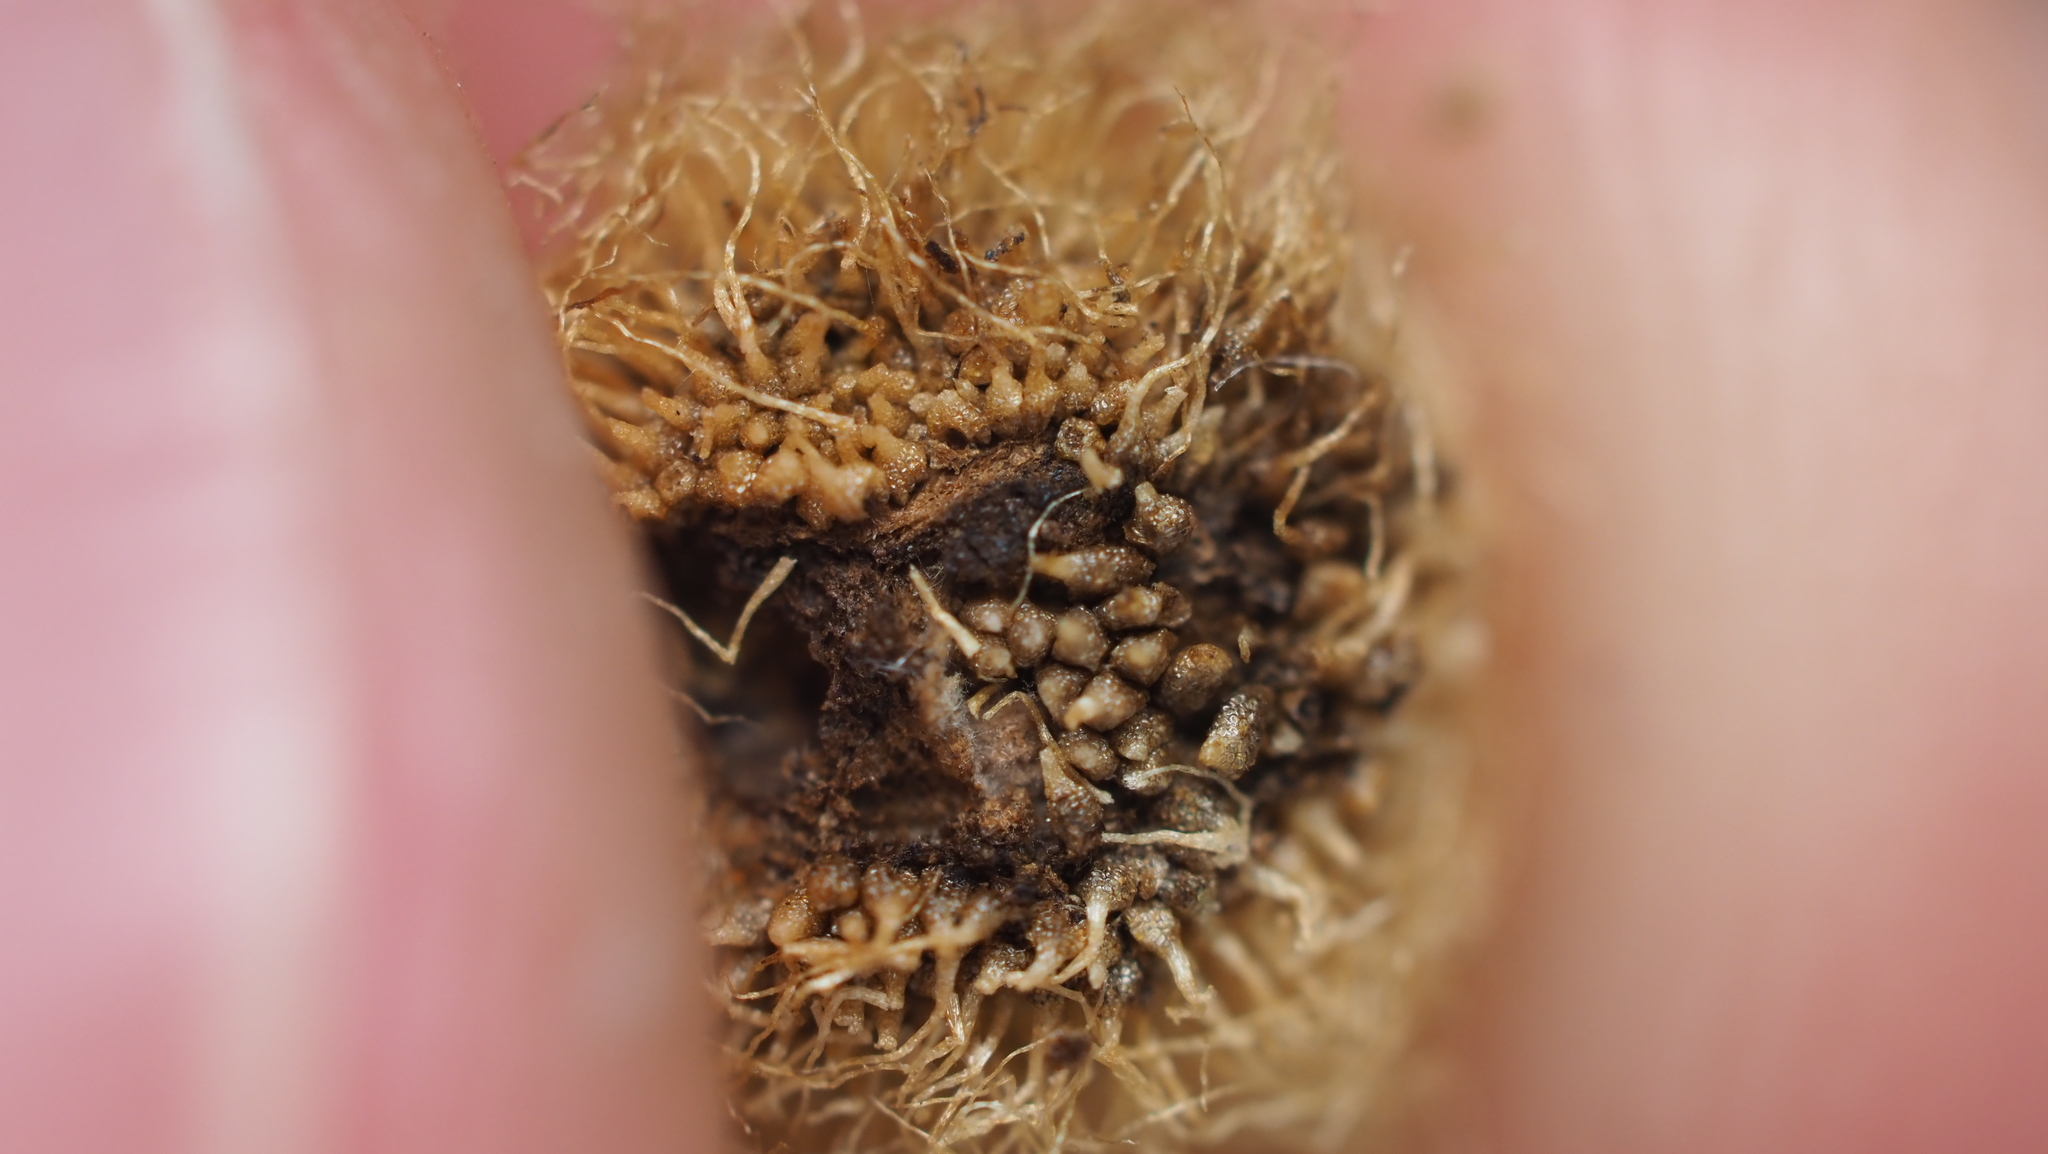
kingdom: Animalia
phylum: Arthropoda
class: Insecta
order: Hymenoptera
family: Cynipidae
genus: Acraspis
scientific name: Acraspis villosa
